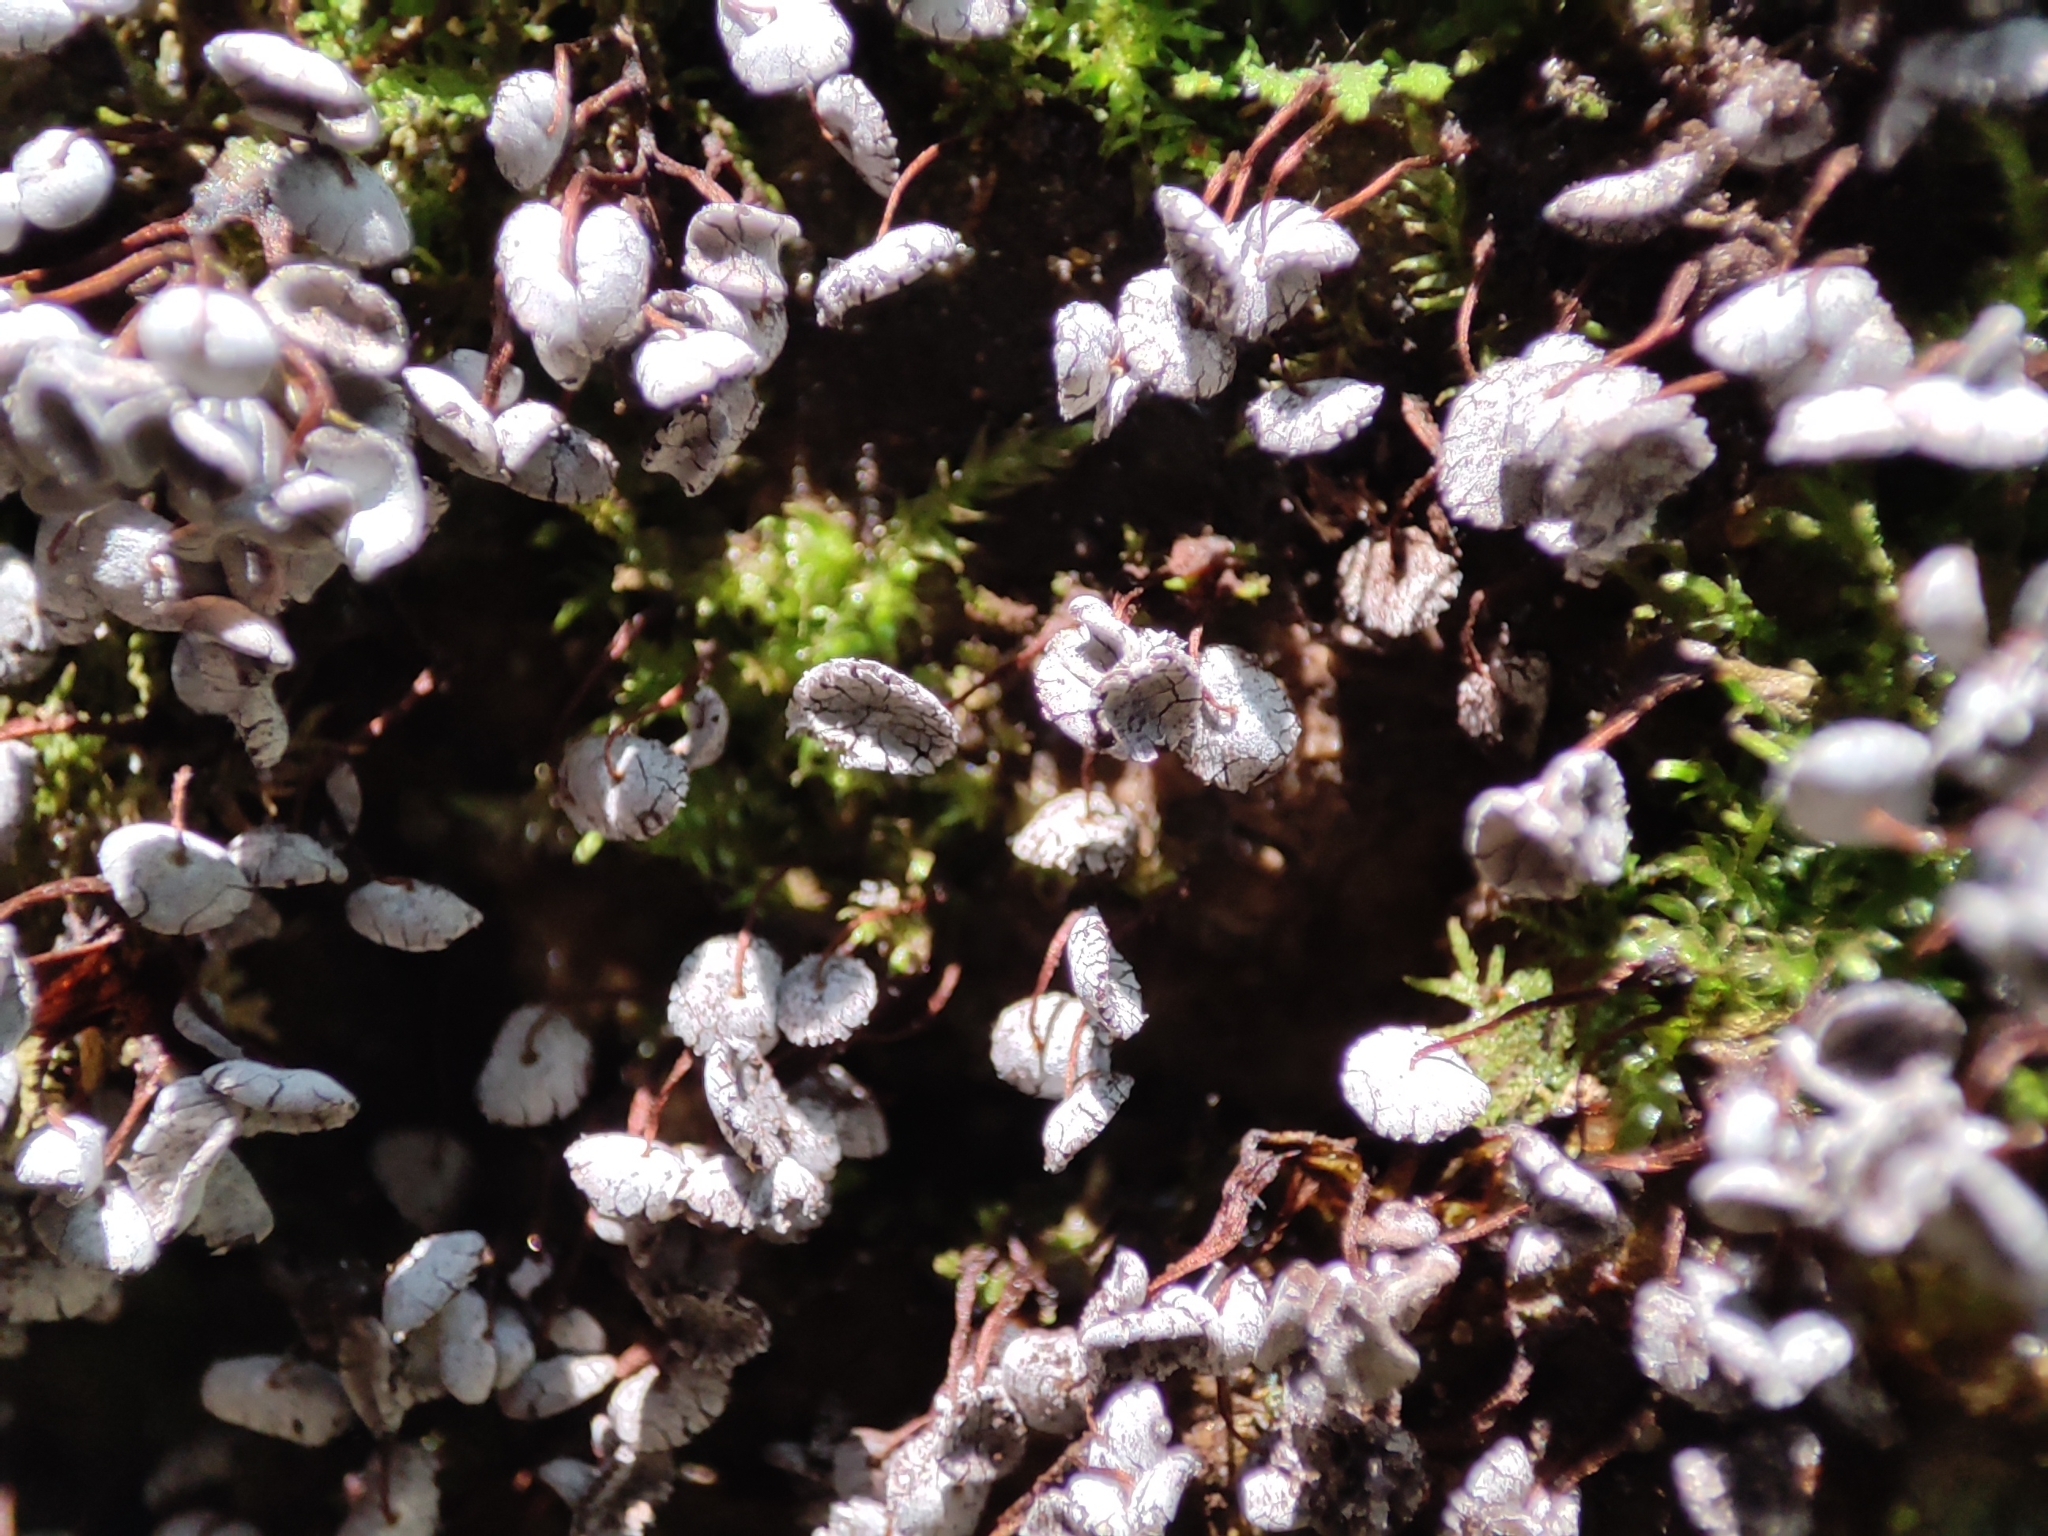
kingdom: Protozoa
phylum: Mycetozoa
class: Myxomycetes
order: Physarales
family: Physaraceae
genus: Physarum
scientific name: Physarum pezizoideum
